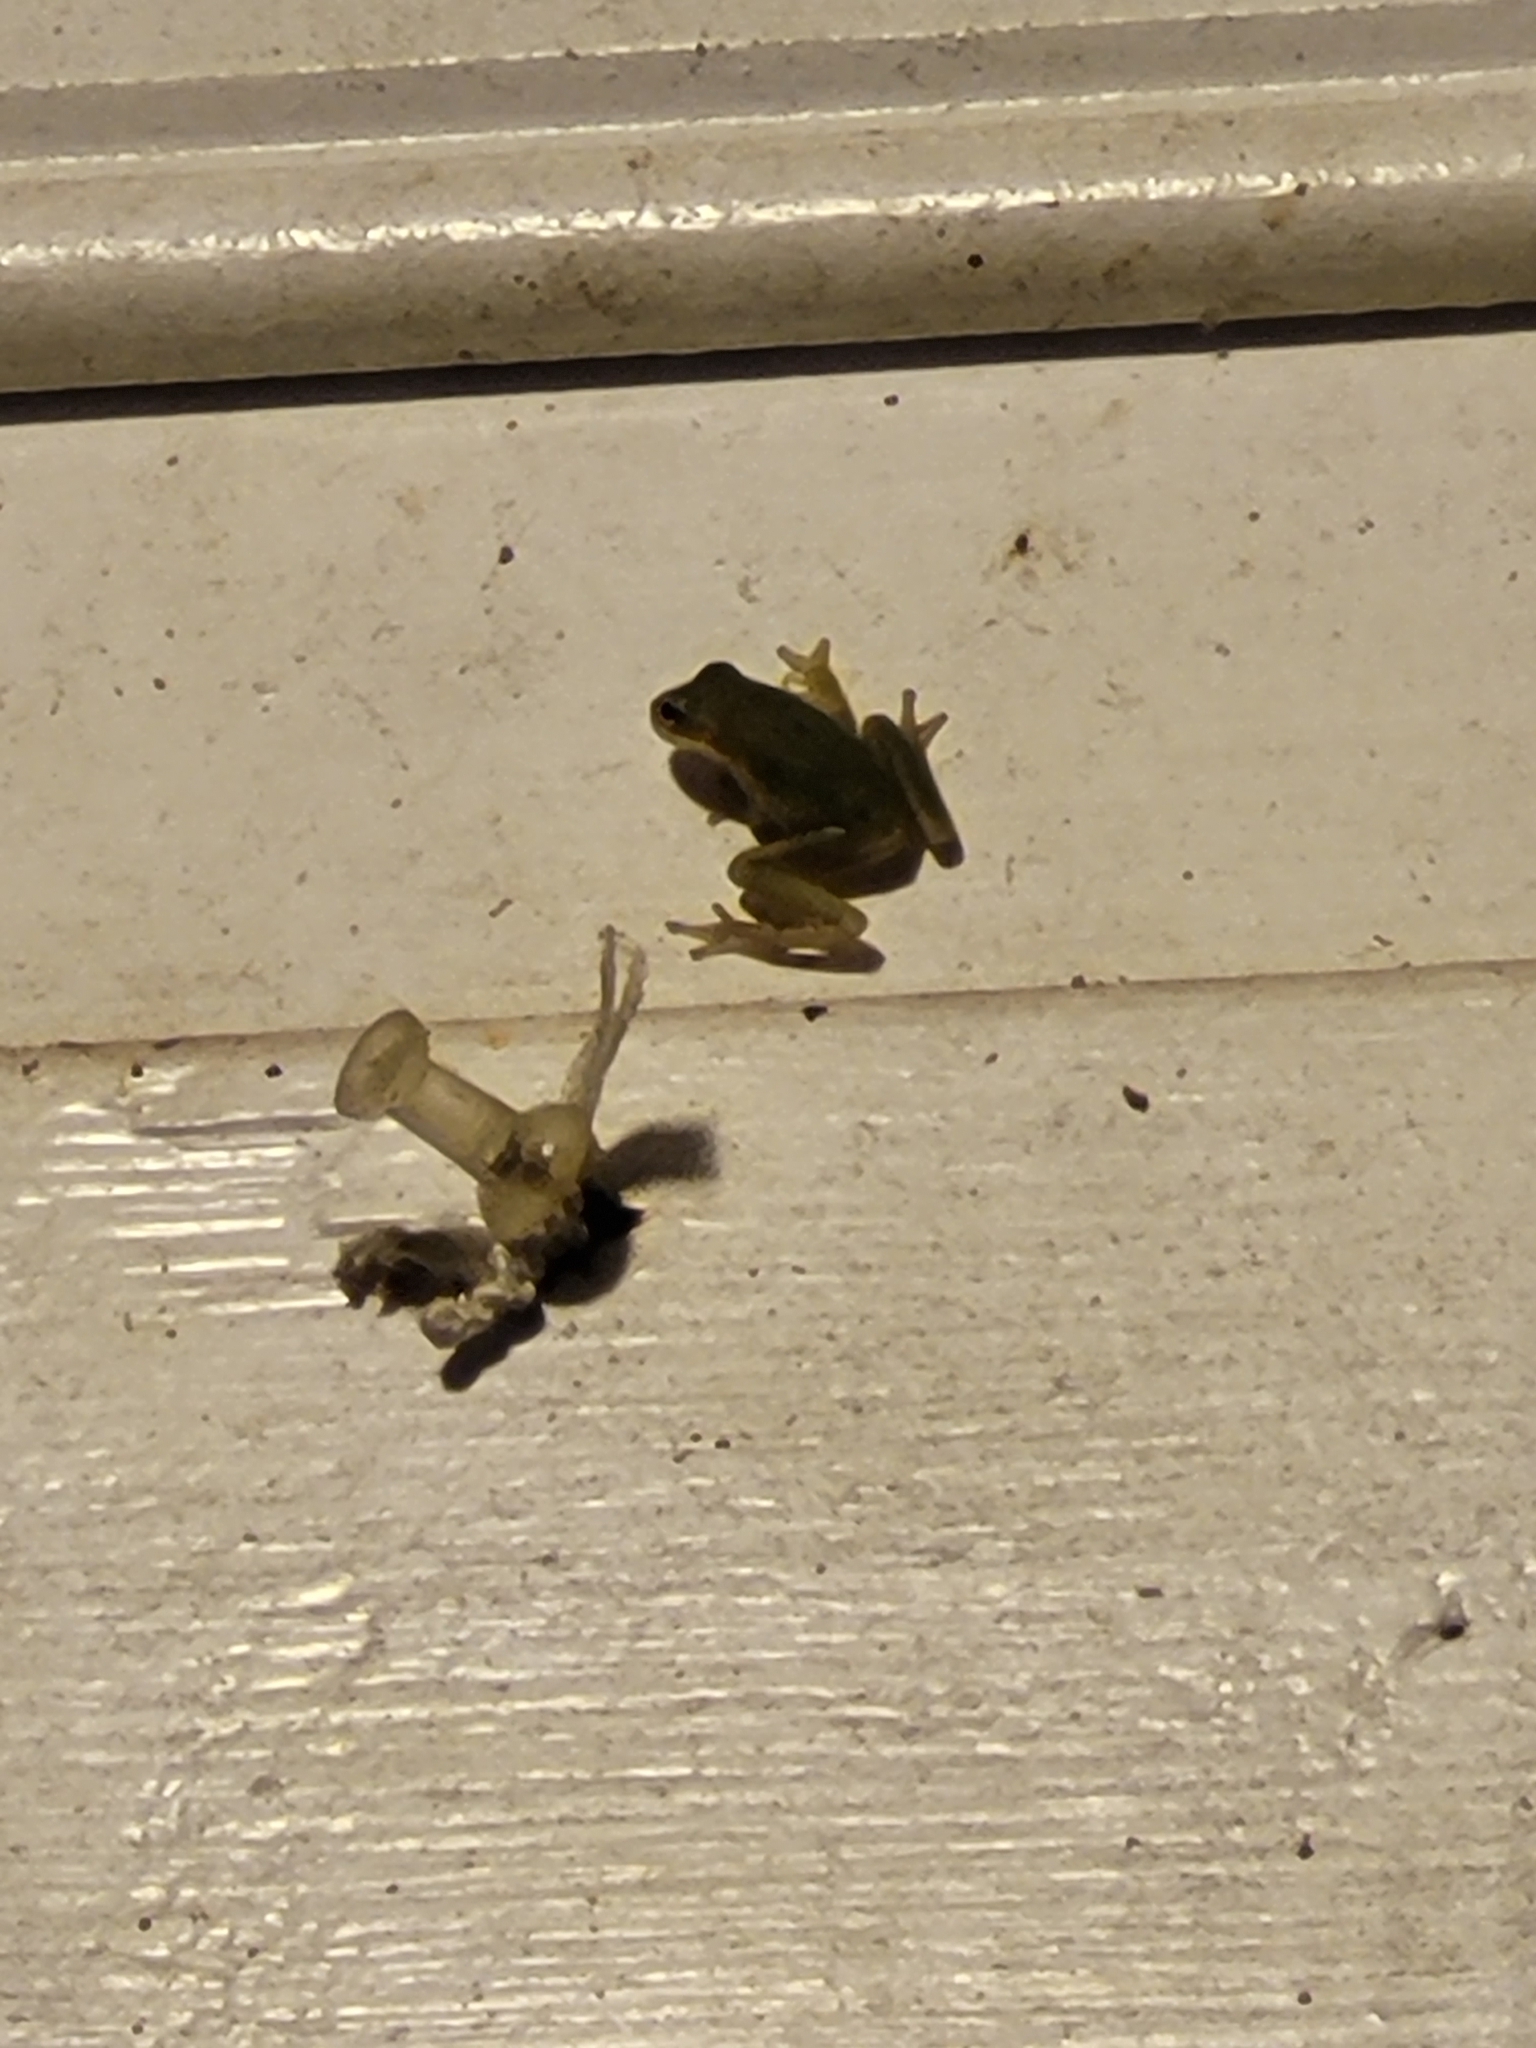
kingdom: Animalia
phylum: Chordata
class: Amphibia
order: Anura
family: Hylidae
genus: Dryophytes
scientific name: Dryophytes squirellus
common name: Squirrel treefrog
